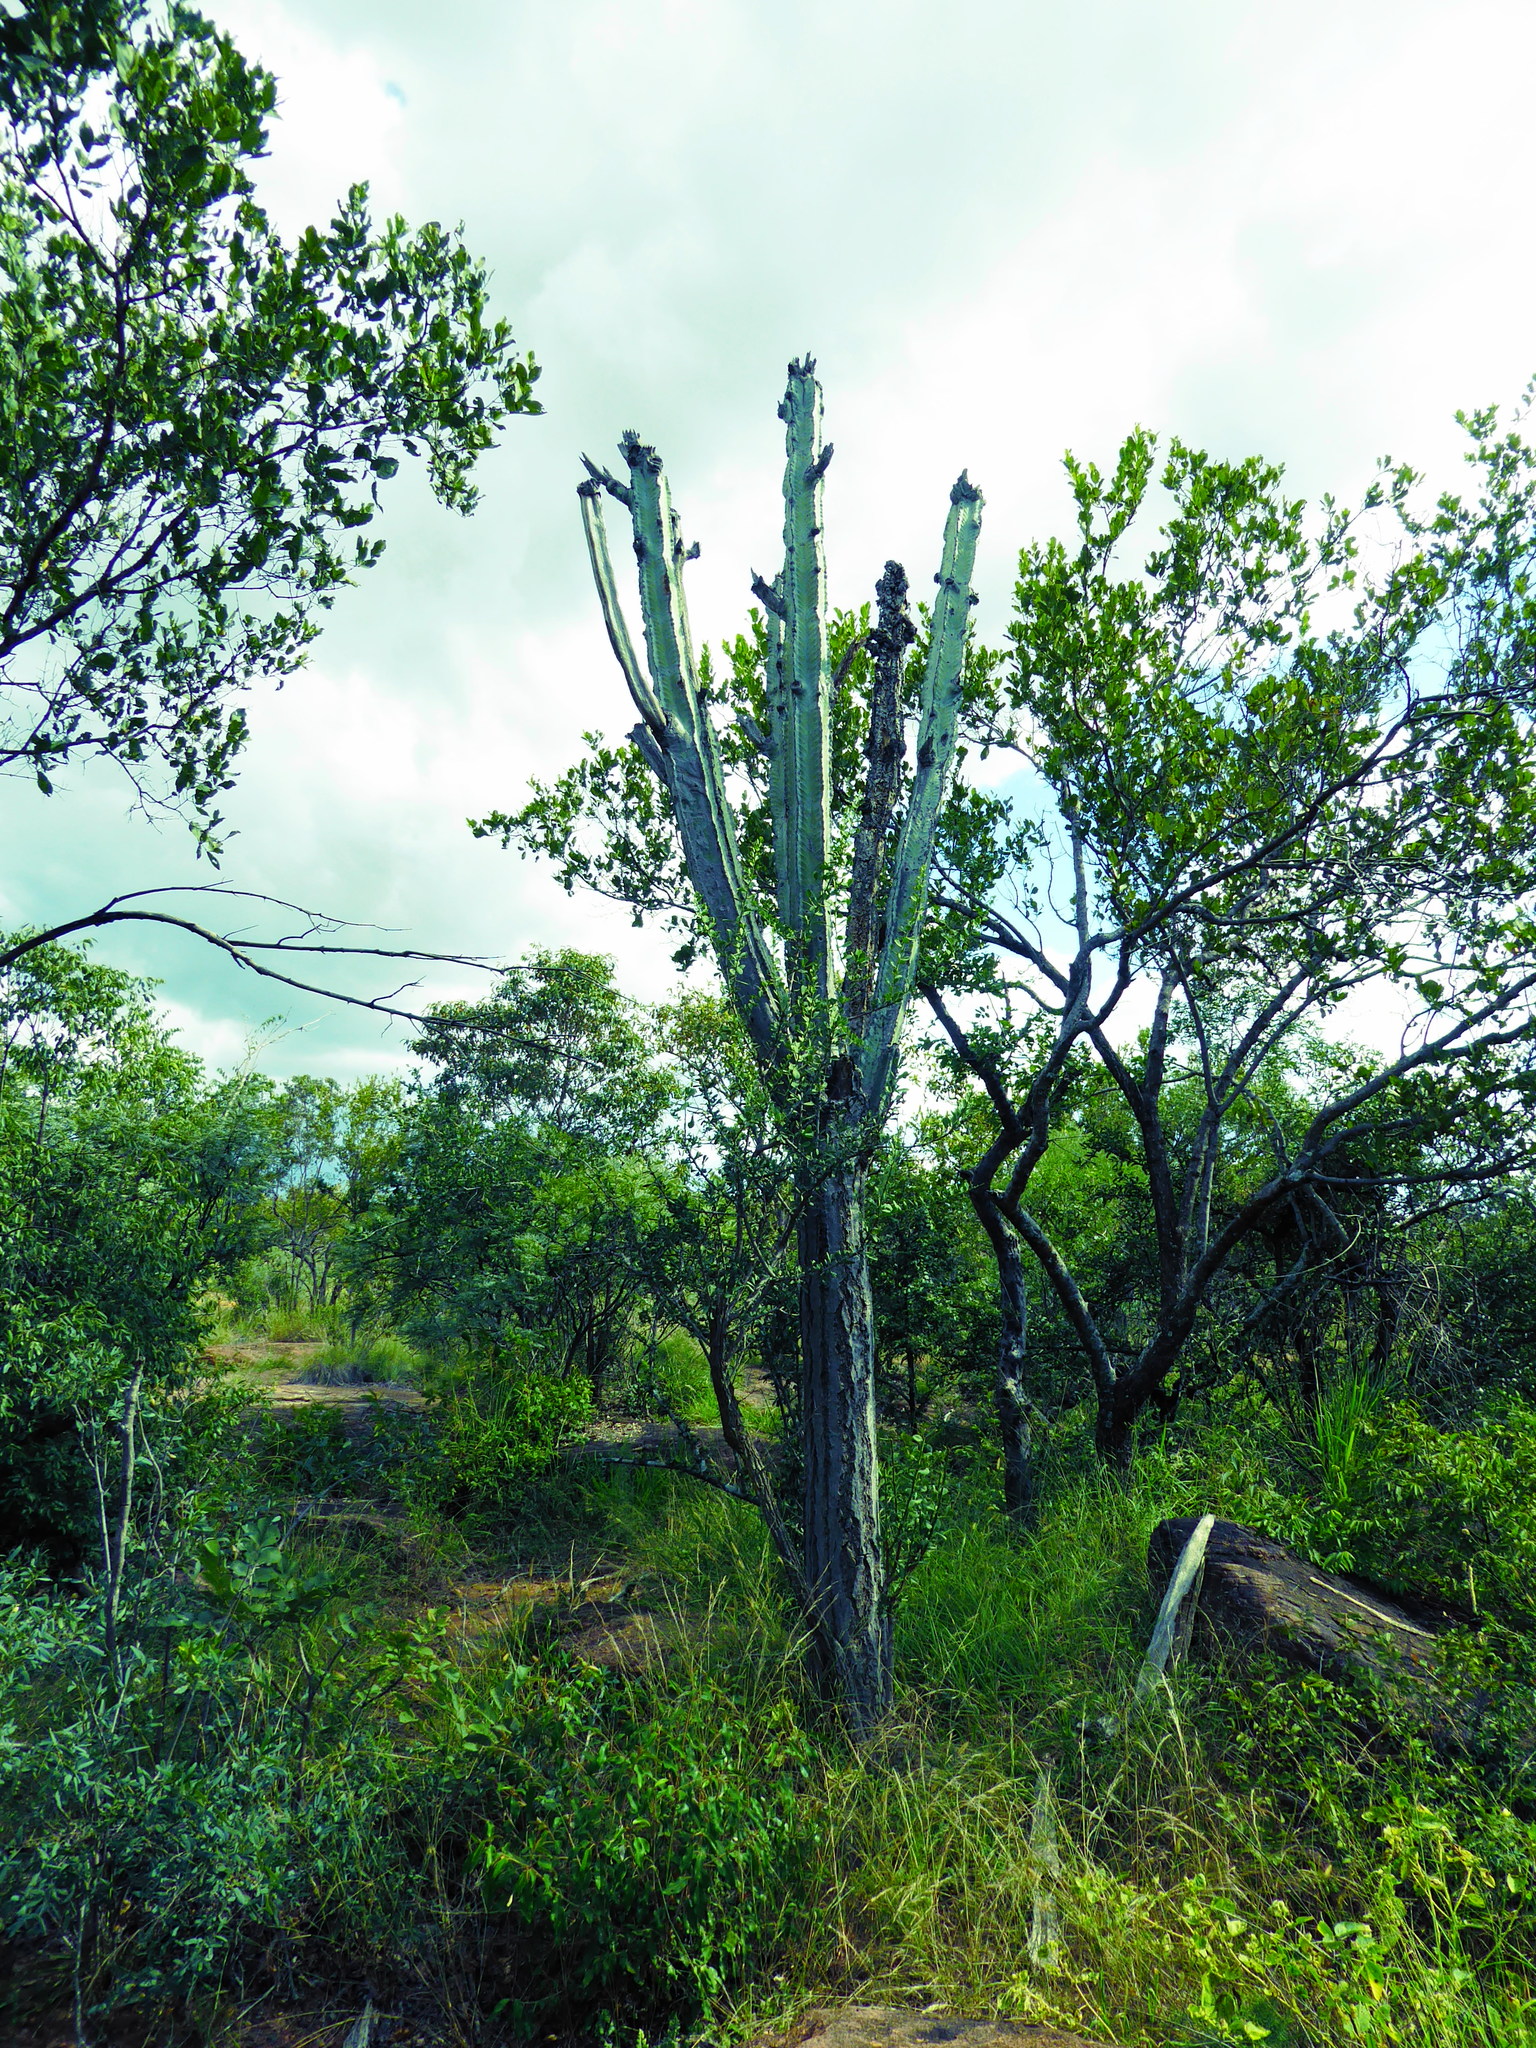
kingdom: Plantae
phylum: Tracheophyta
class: Magnoliopsida
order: Malpighiales
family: Euphorbiaceae
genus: Euphorbia
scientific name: Euphorbia ingens
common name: Cactus spurge
